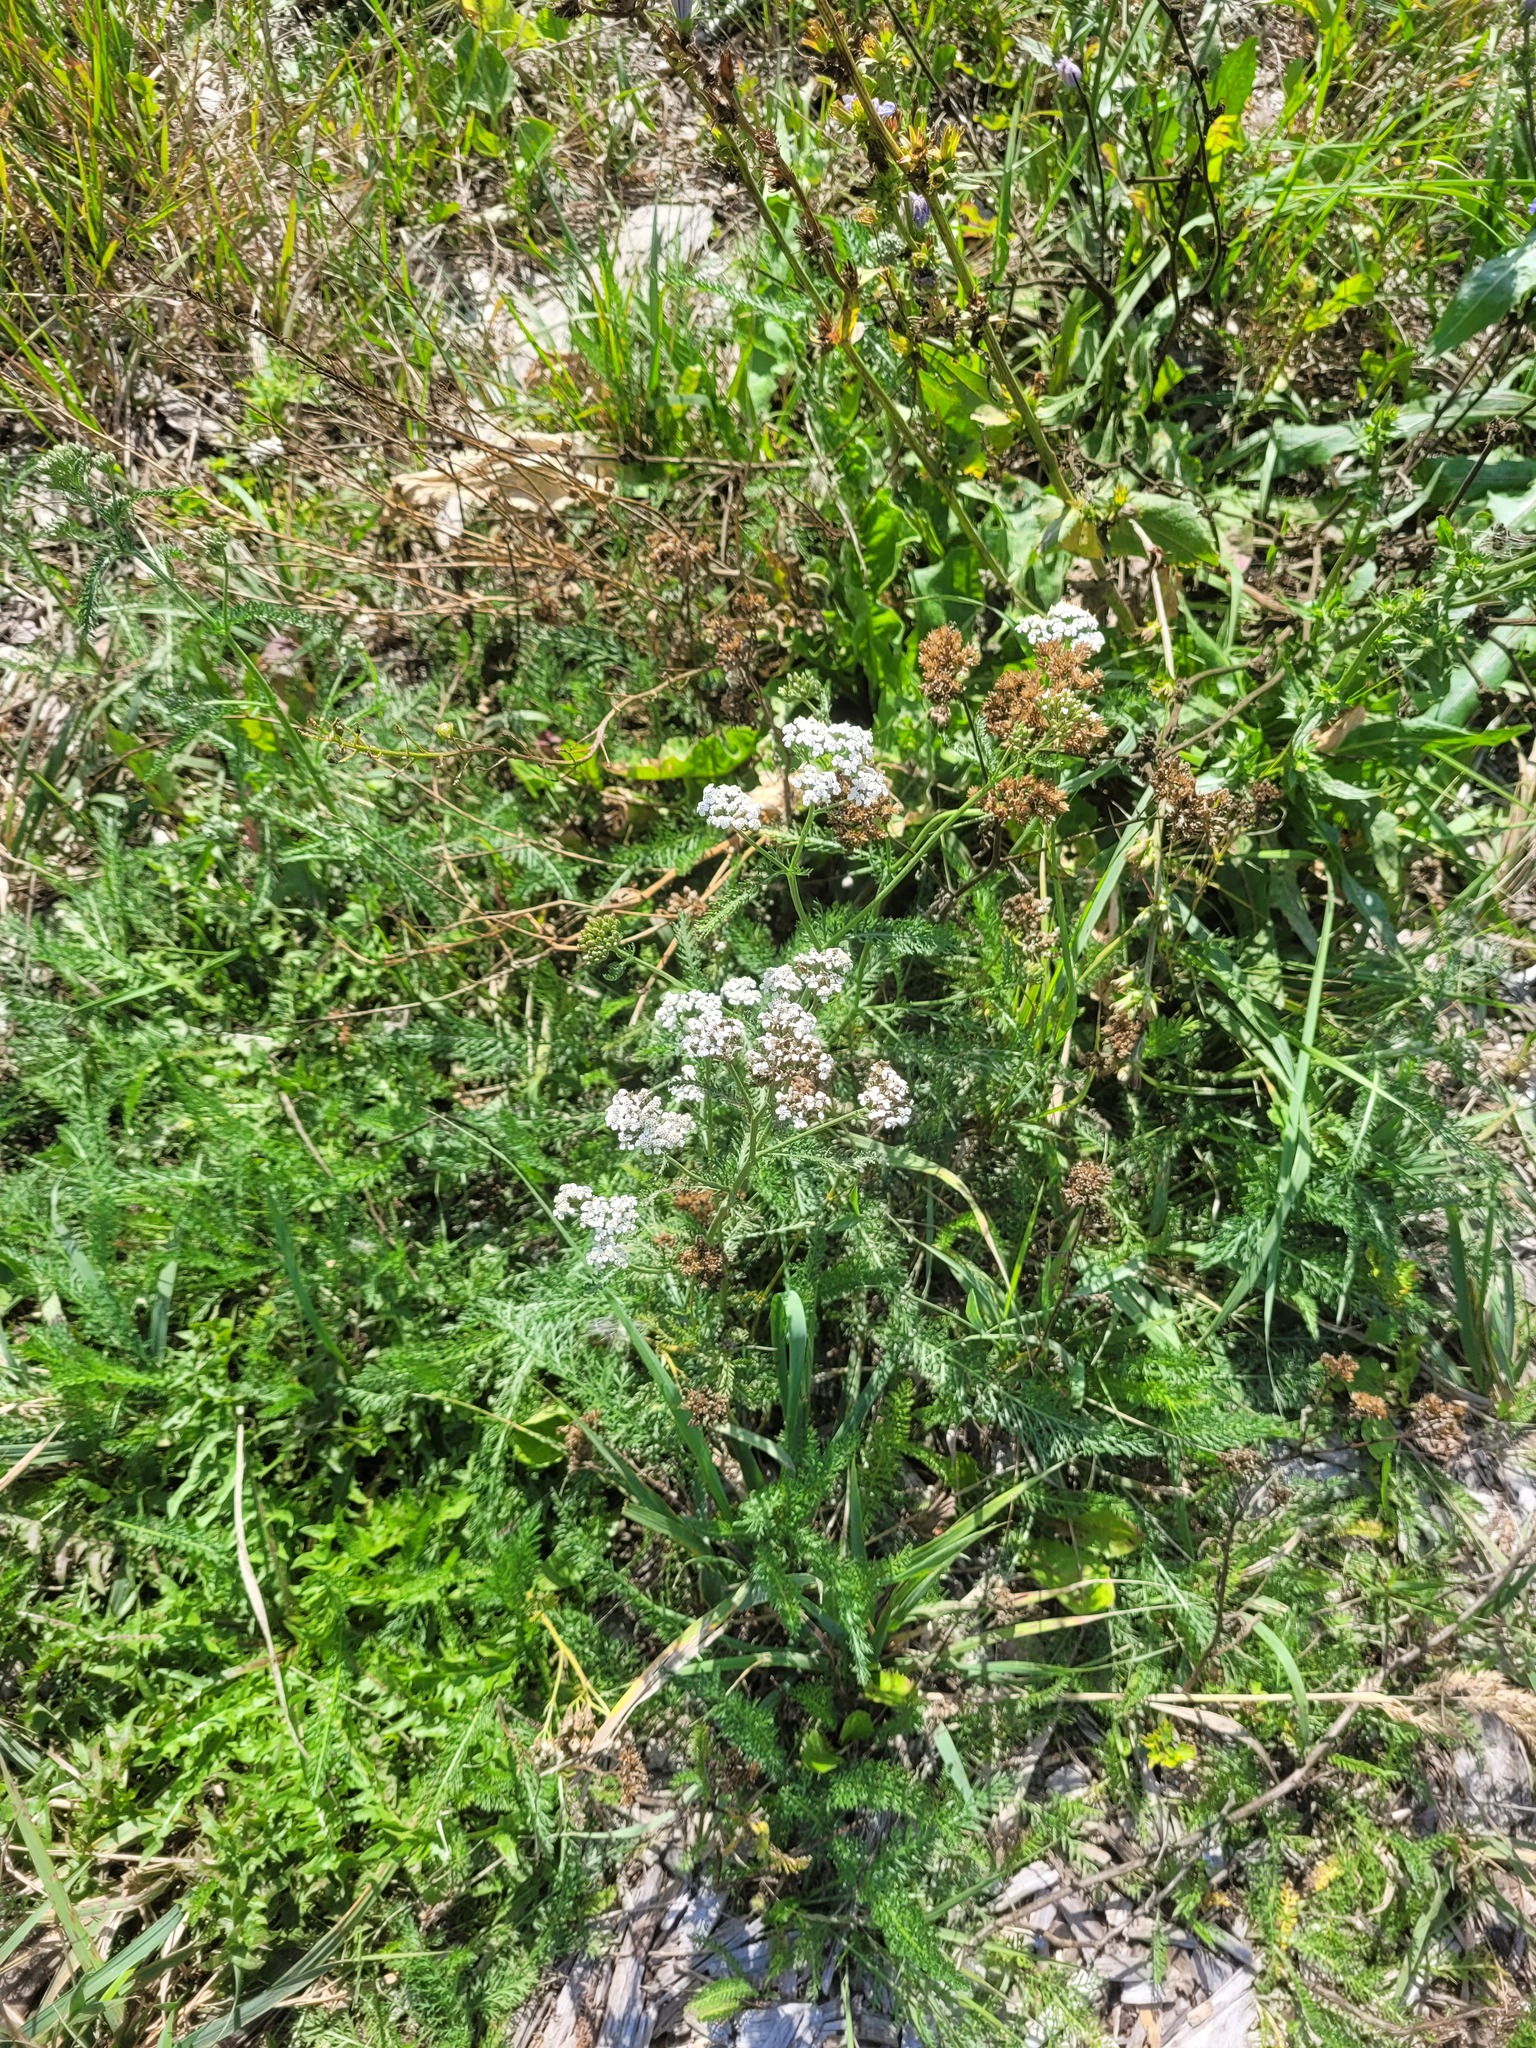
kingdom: Plantae
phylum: Tracheophyta
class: Magnoliopsida
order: Asterales
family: Asteraceae
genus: Achillea
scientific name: Achillea millefolium
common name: Yarrow
